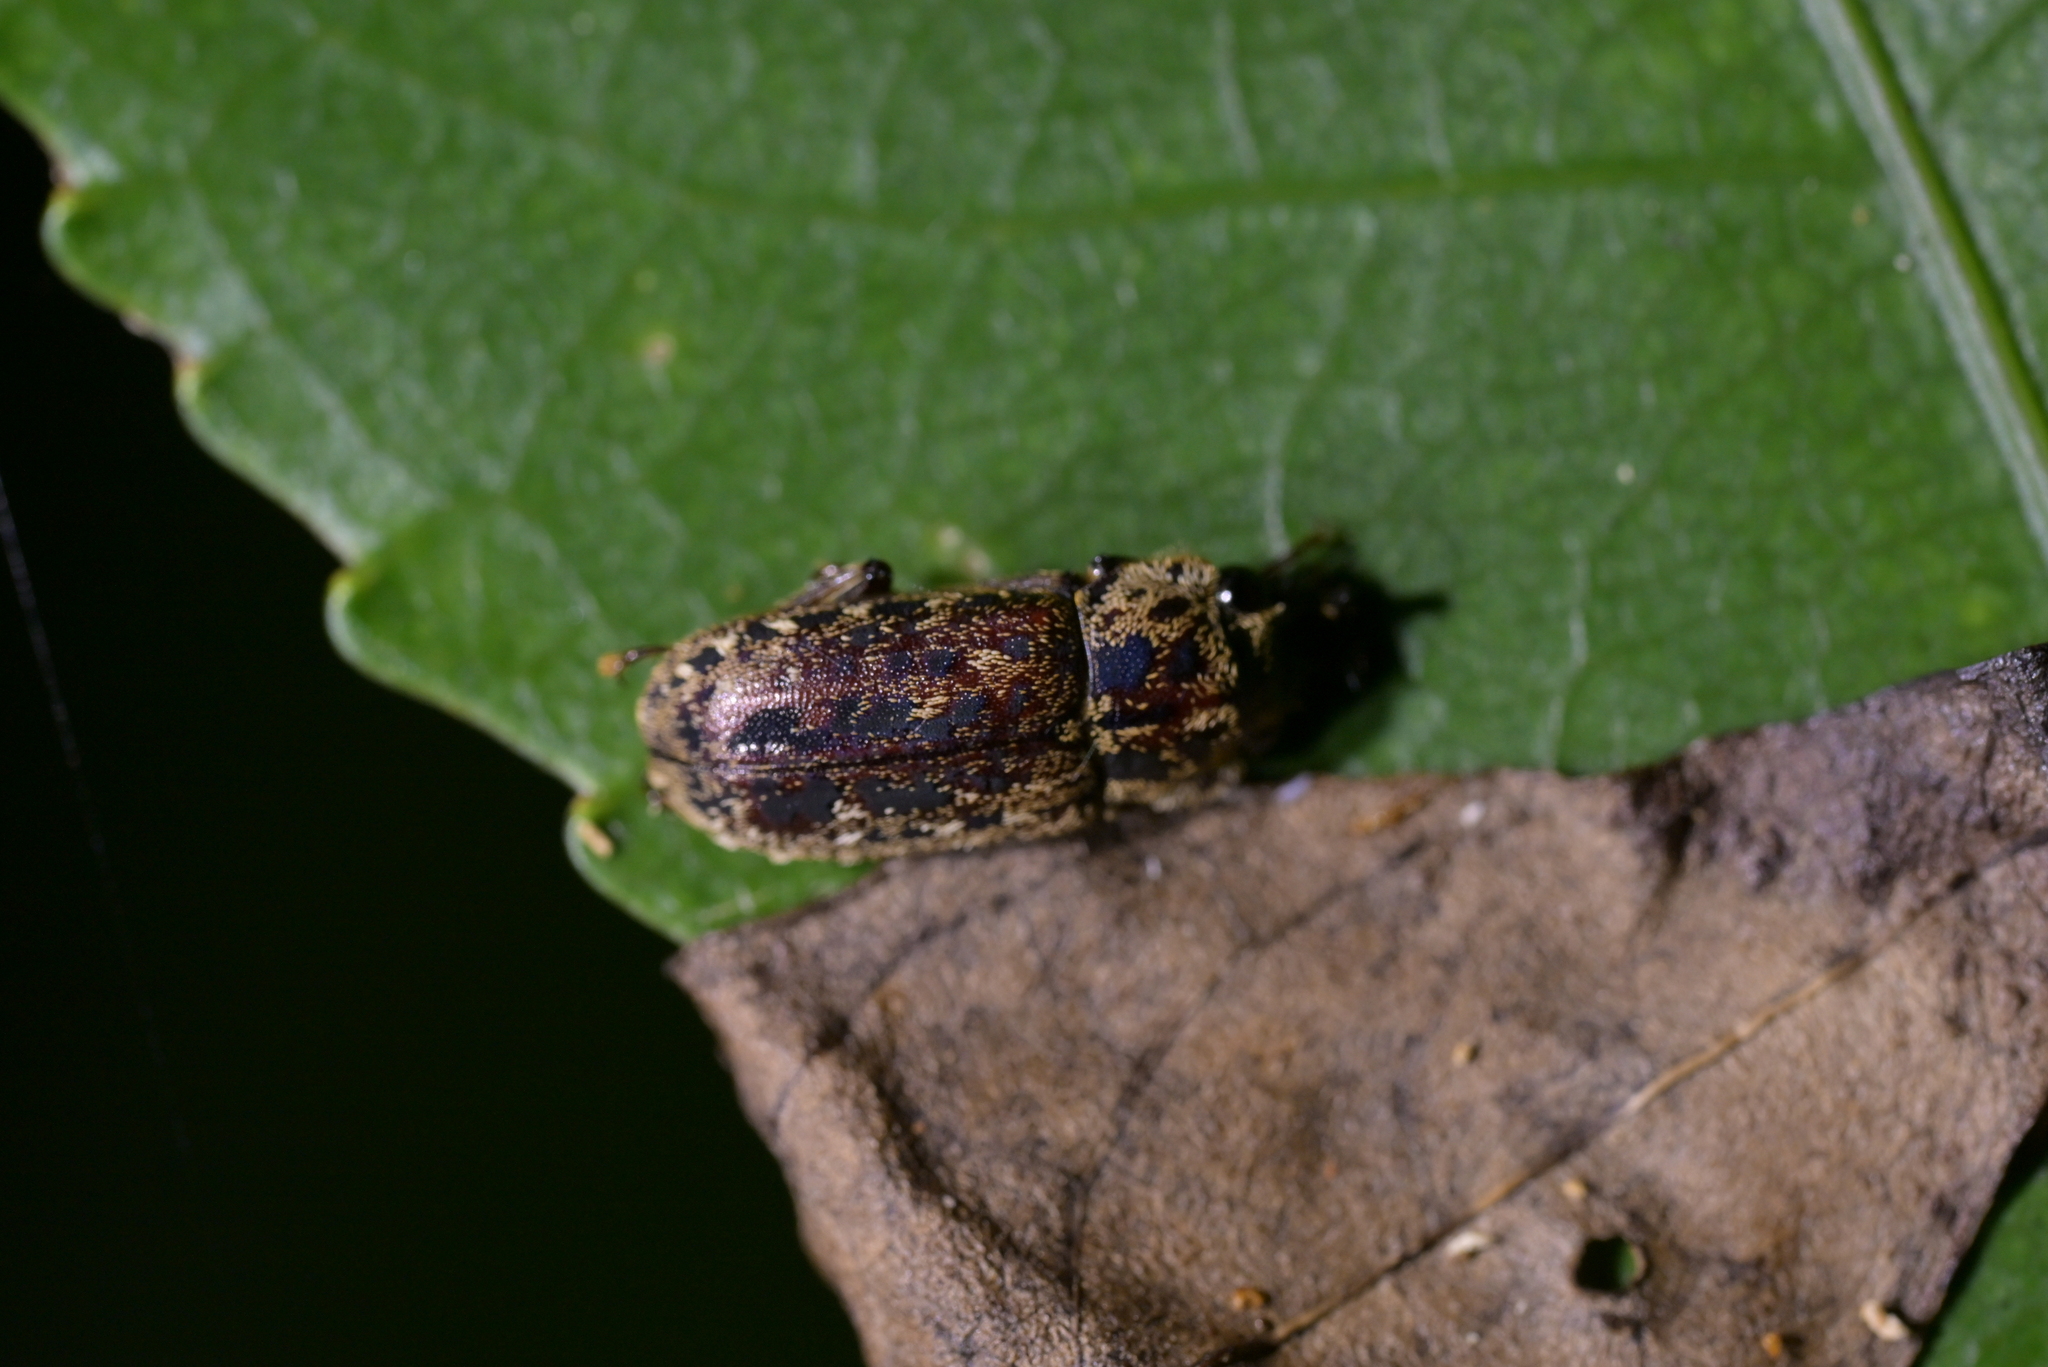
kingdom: Animalia
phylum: Arthropoda
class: Insecta
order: Coleoptera
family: Lucanidae
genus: Mitophyllus
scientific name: Mitophyllus irroratus
